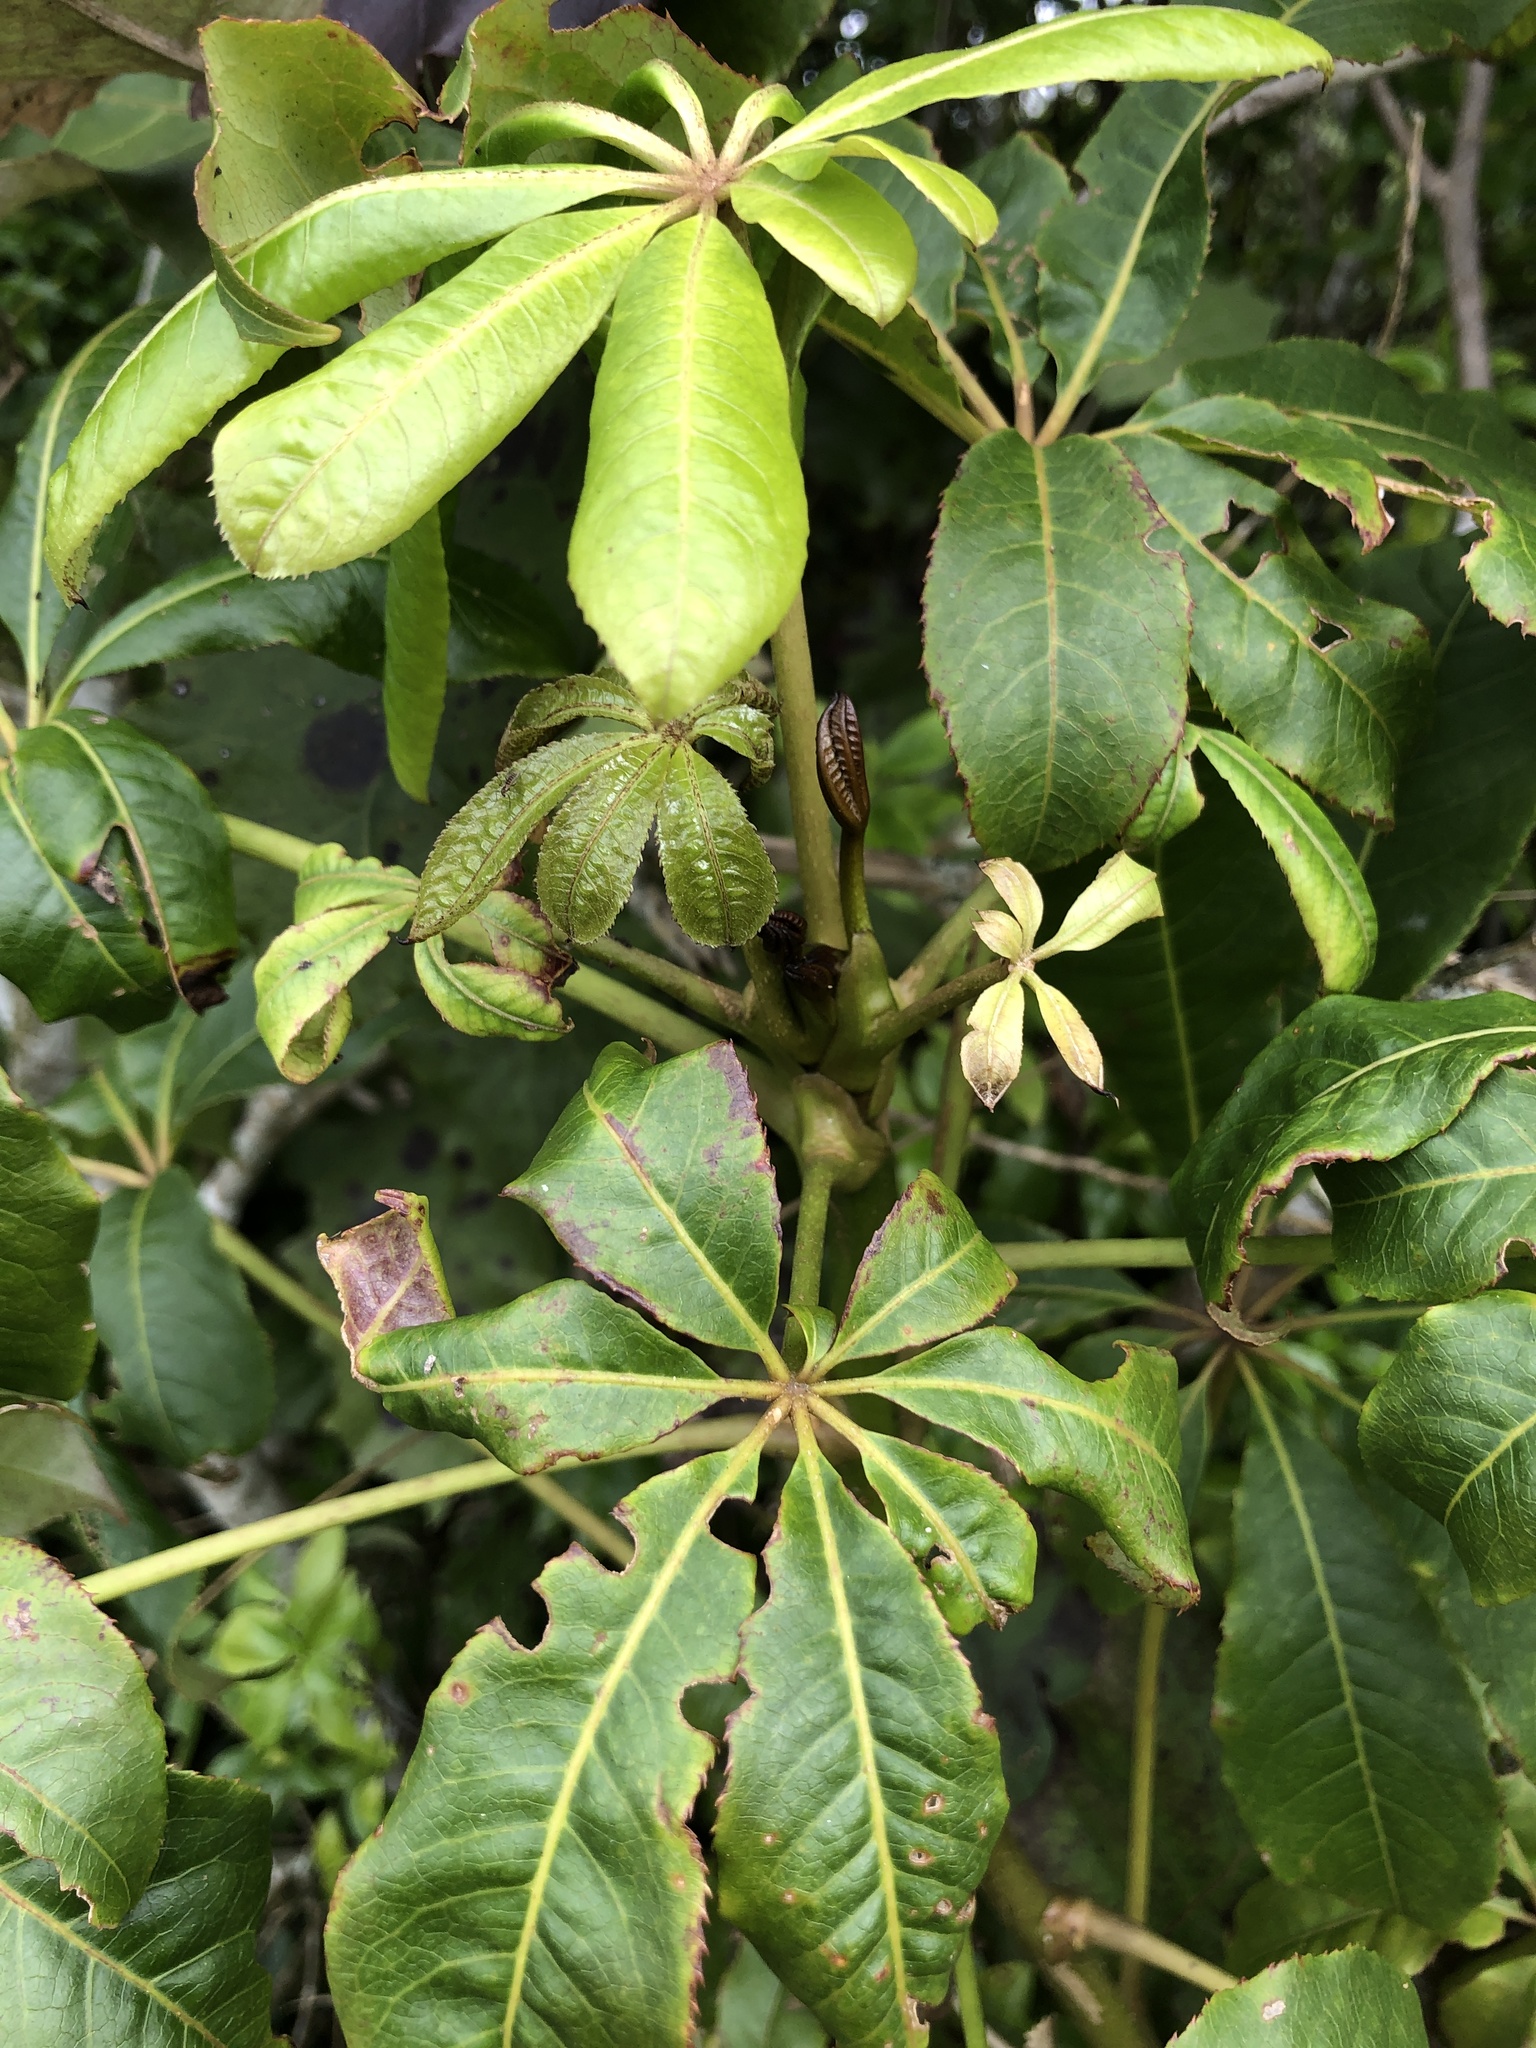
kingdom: Plantae
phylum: Tracheophyta
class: Magnoliopsida
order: Apiales
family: Araliaceae
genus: Schefflera
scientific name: Schefflera digitata
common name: Pate
